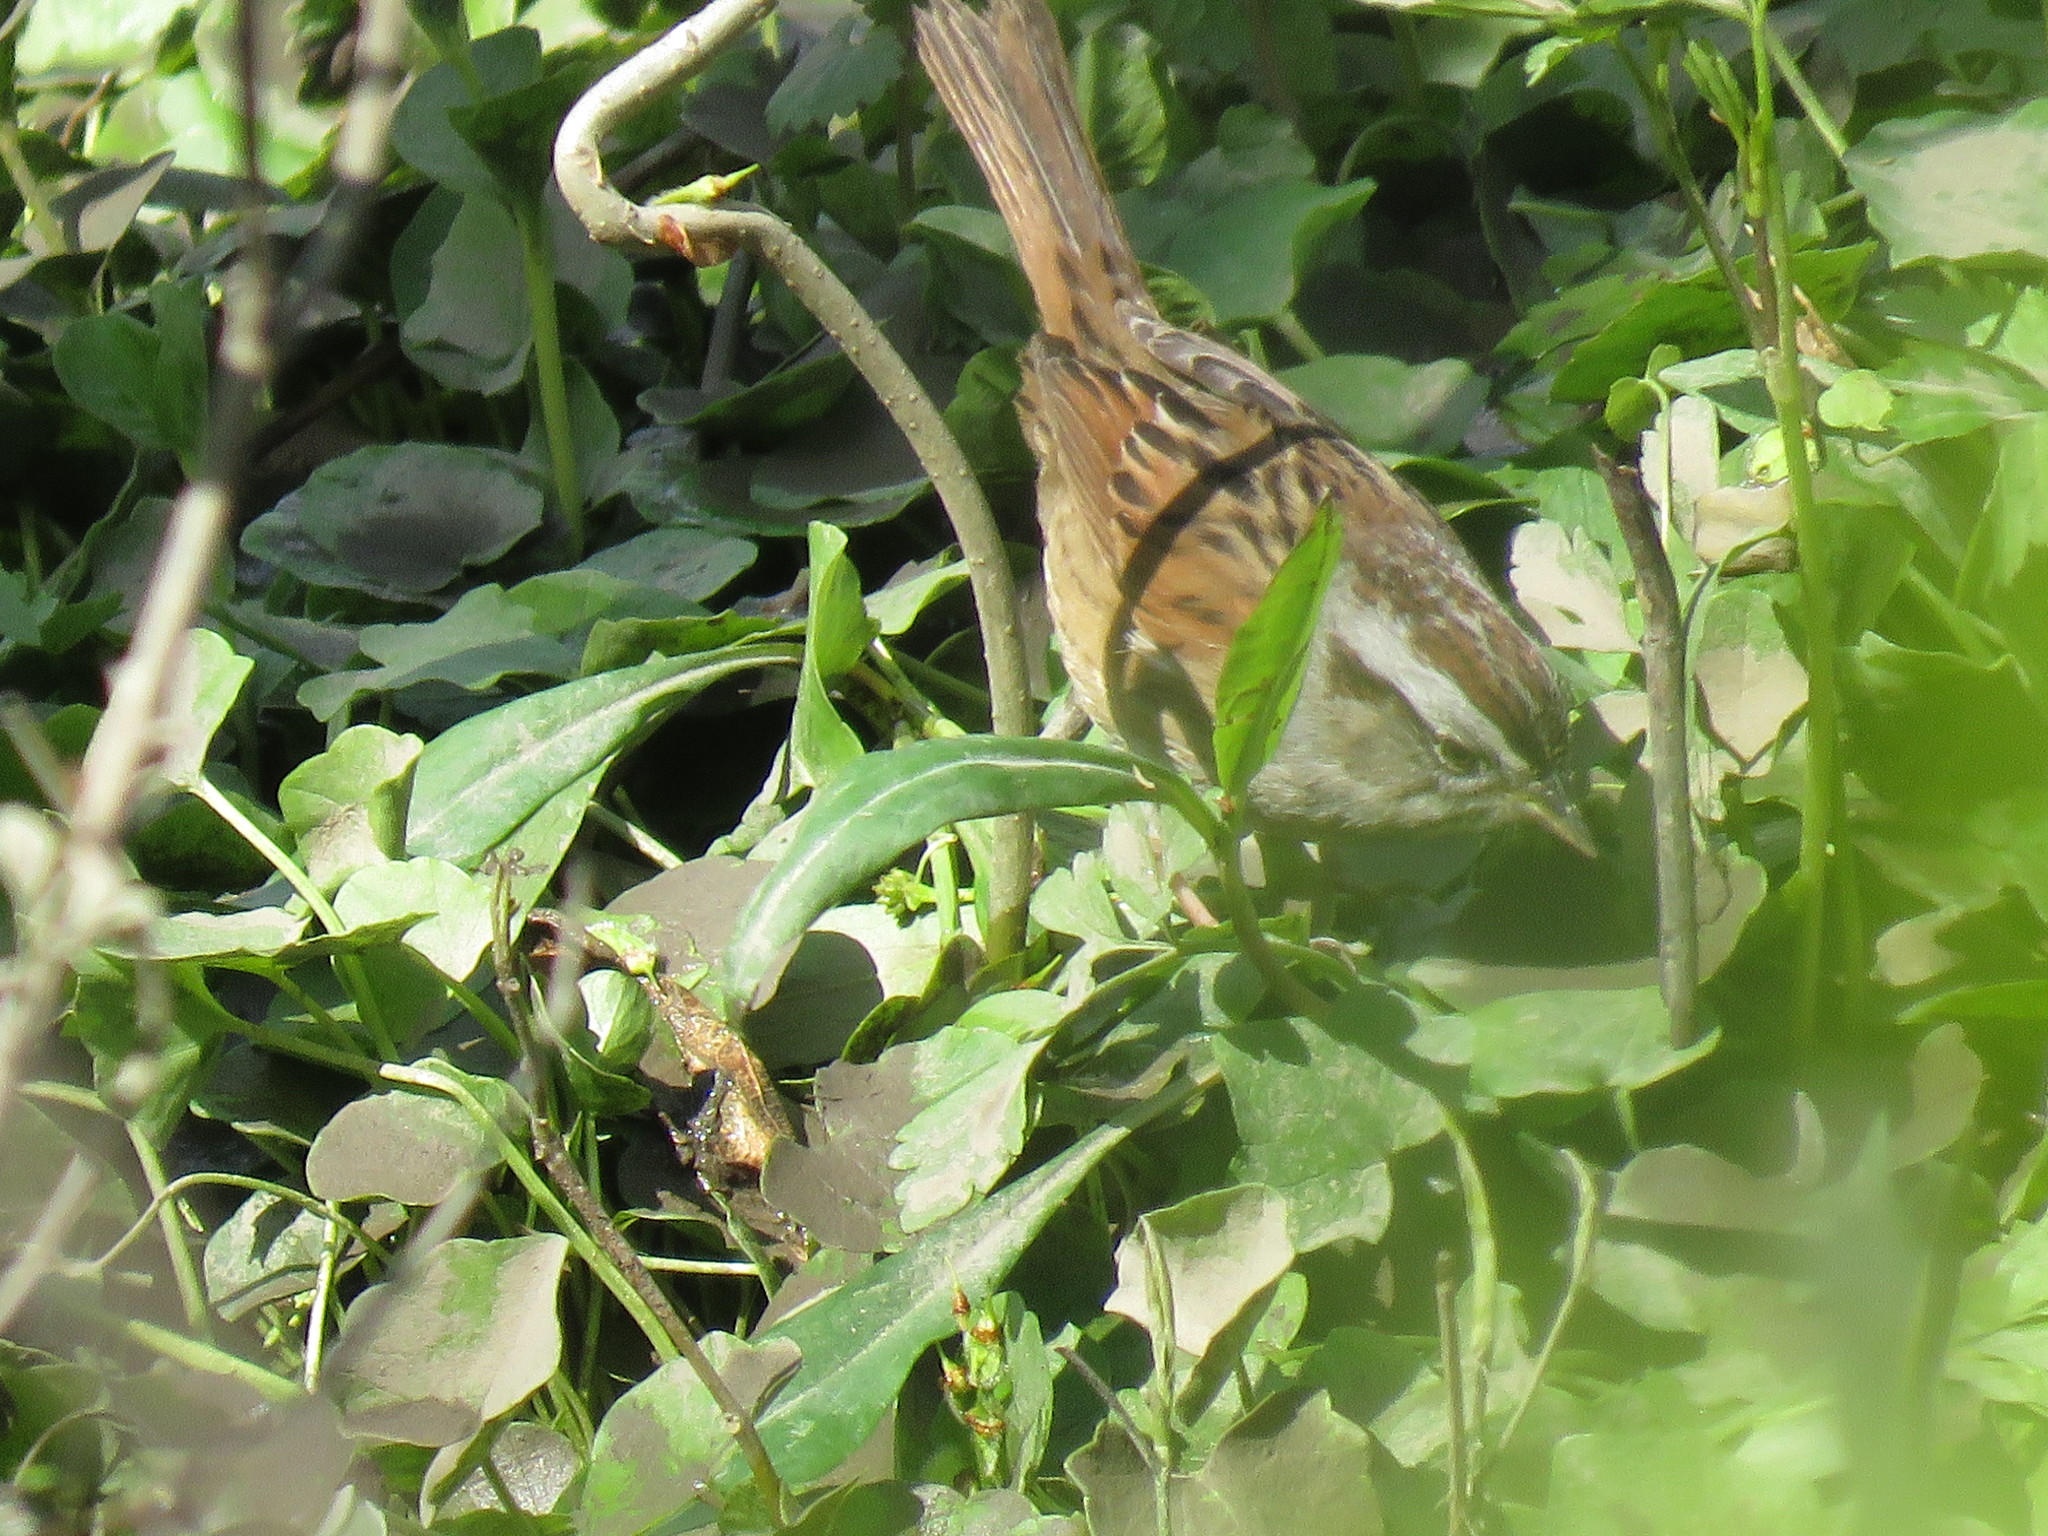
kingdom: Animalia
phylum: Chordata
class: Aves
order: Passeriformes
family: Passerellidae
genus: Melospiza
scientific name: Melospiza georgiana
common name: Swamp sparrow
